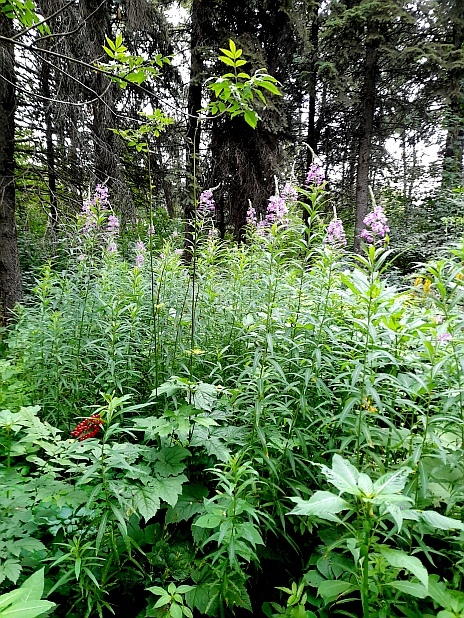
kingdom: Plantae
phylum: Tracheophyta
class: Magnoliopsida
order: Myrtales
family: Onagraceae
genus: Chamaenerion
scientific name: Chamaenerion angustifolium
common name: Fireweed
